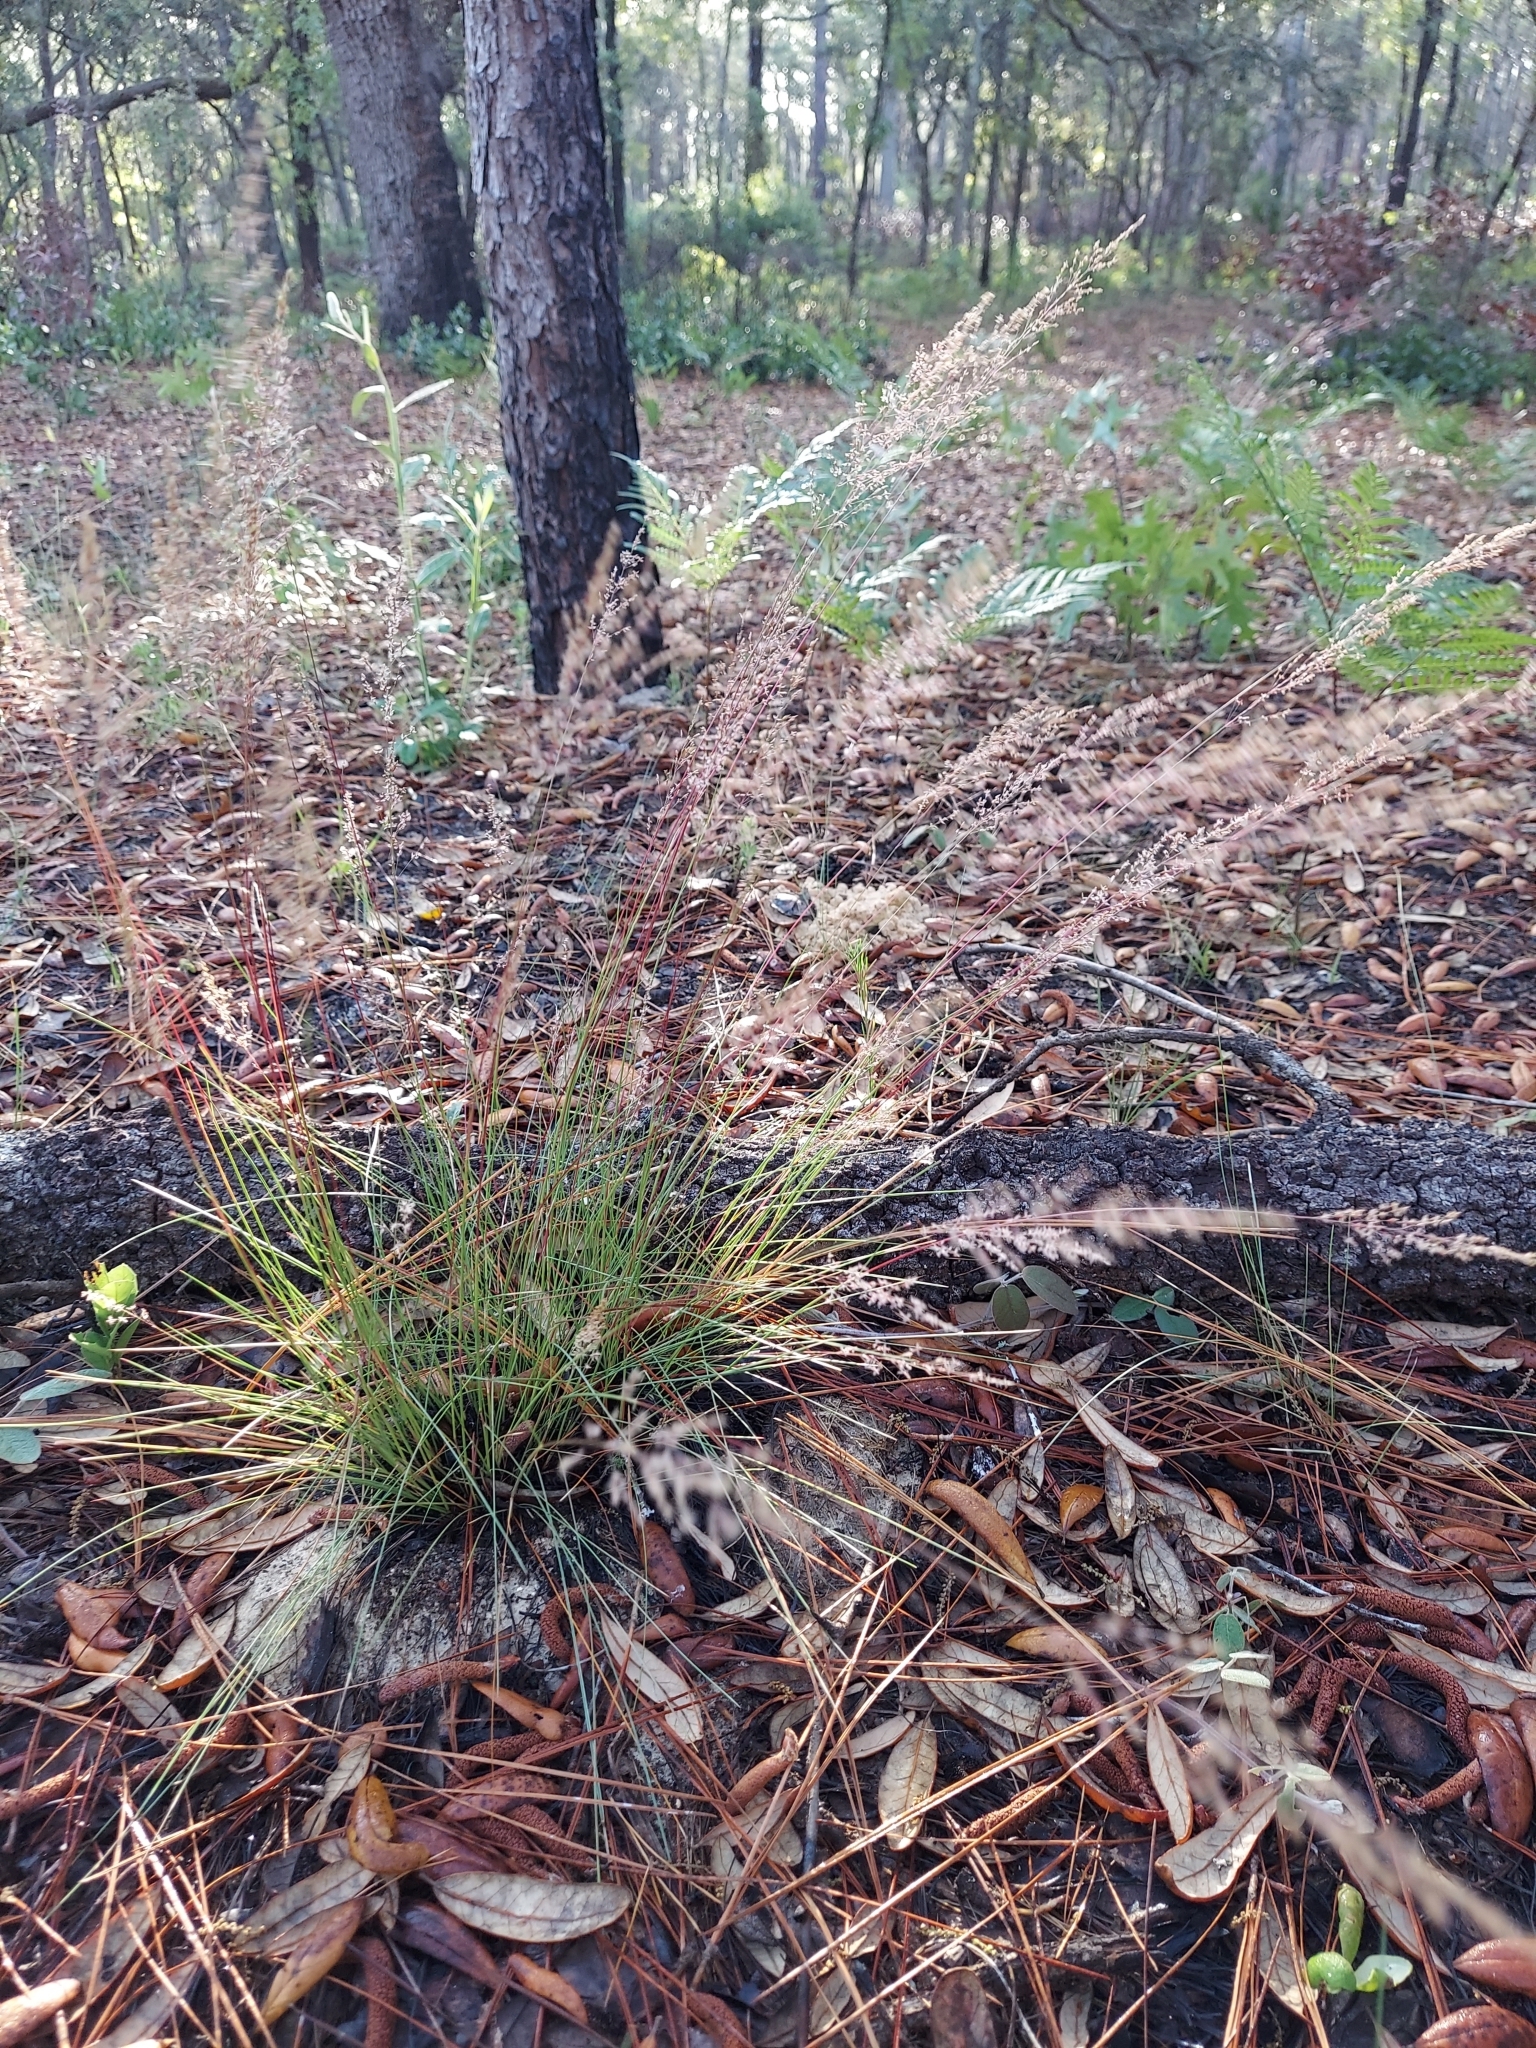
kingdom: Plantae
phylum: Tracheophyta
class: Liliopsida
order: Poales
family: Poaceae
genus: Sporobolus
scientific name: Sporobolus junceus
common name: Lizard grass
